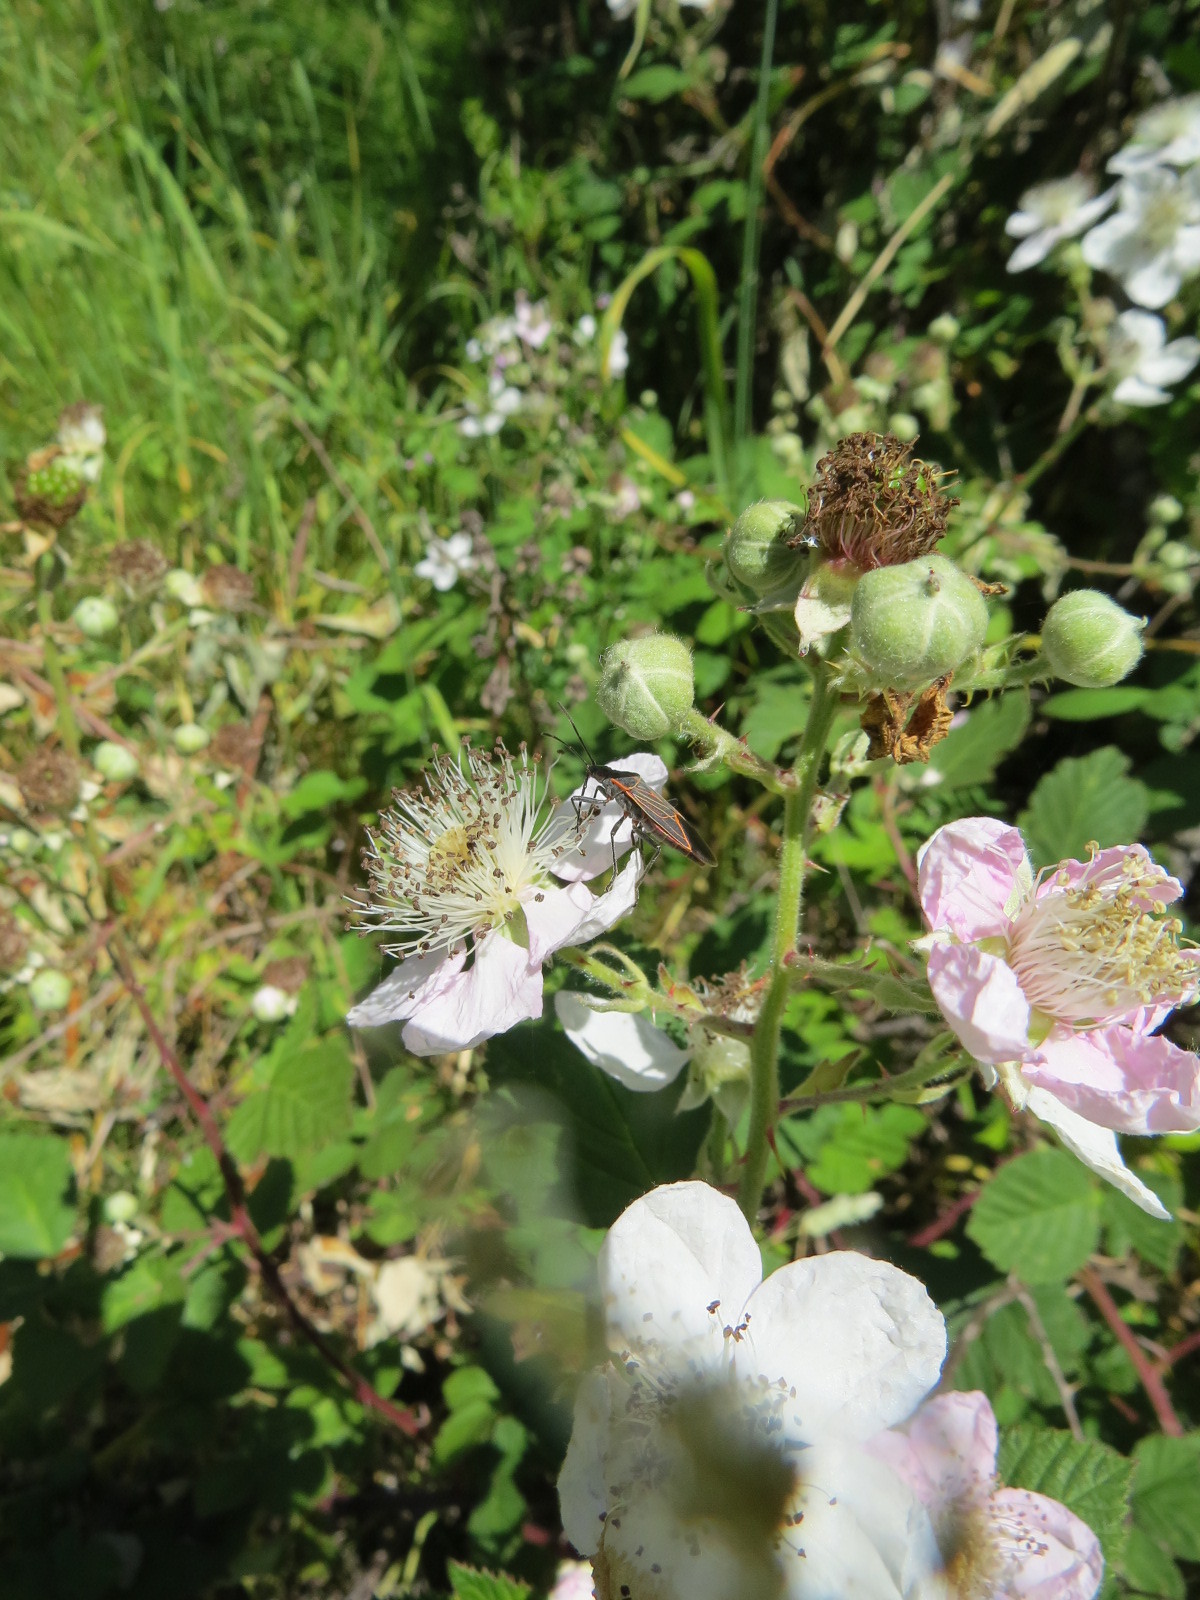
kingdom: Animalia
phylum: Arthropoda
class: Insecta
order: Hemiptera
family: Rhopalidae
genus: Boisea
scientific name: Boisea rubrolineata
